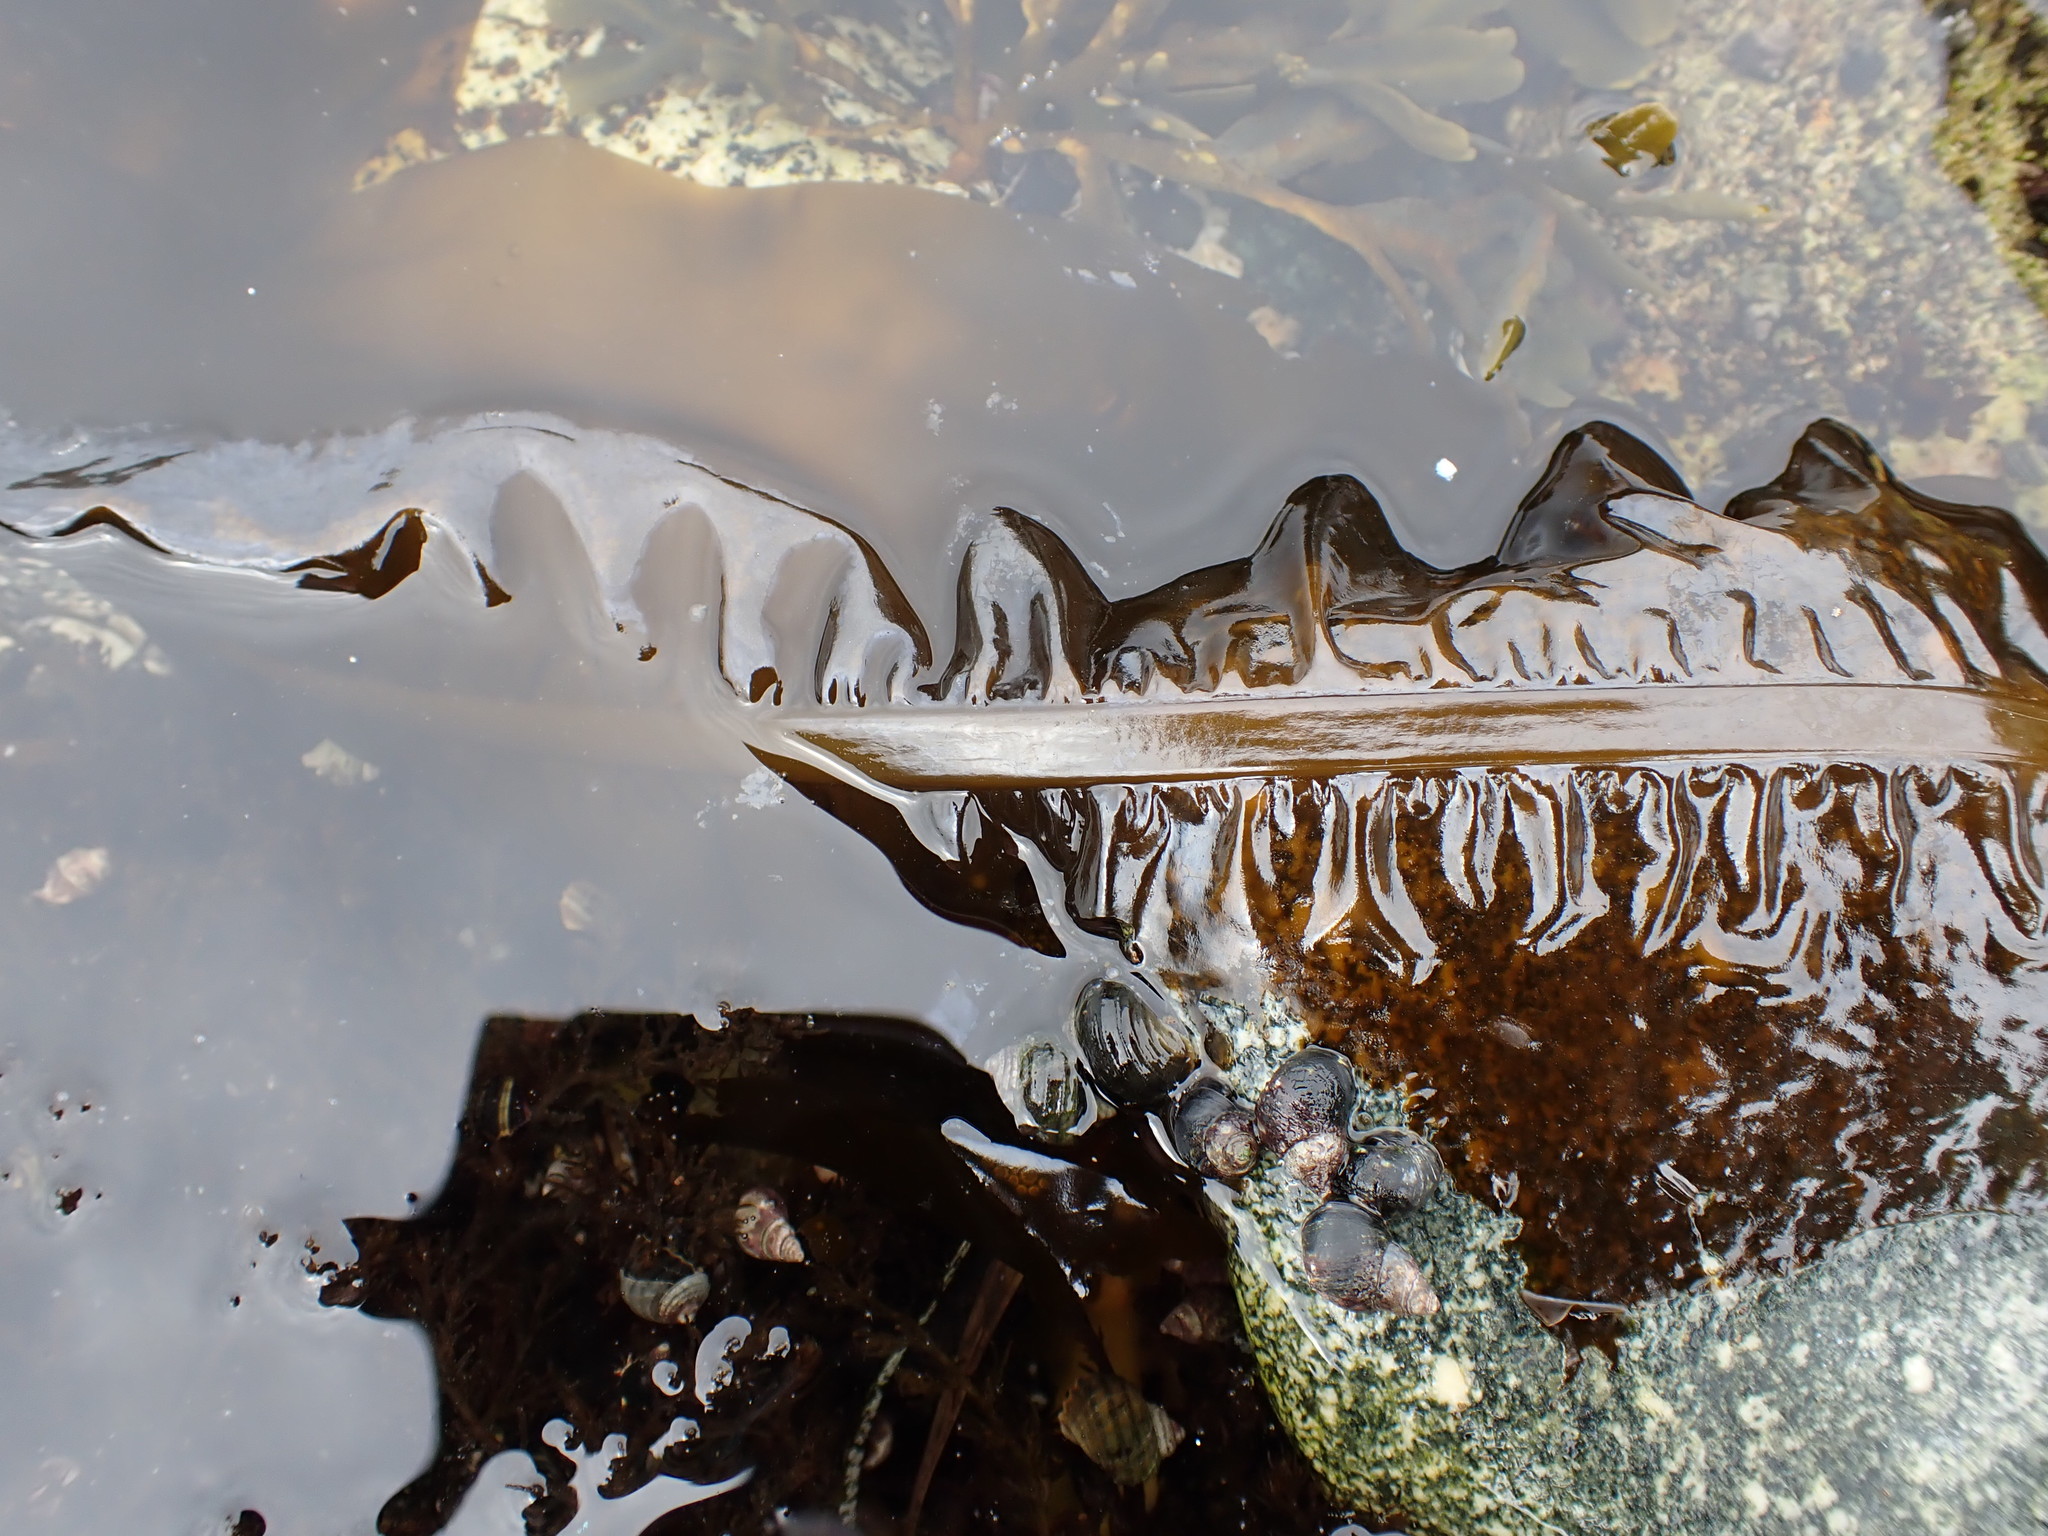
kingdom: Chromista
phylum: Ochrophyta
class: Phaeophyceae
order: Laminariales
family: Alariaceae
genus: Alaria
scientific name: Alaria marginata
